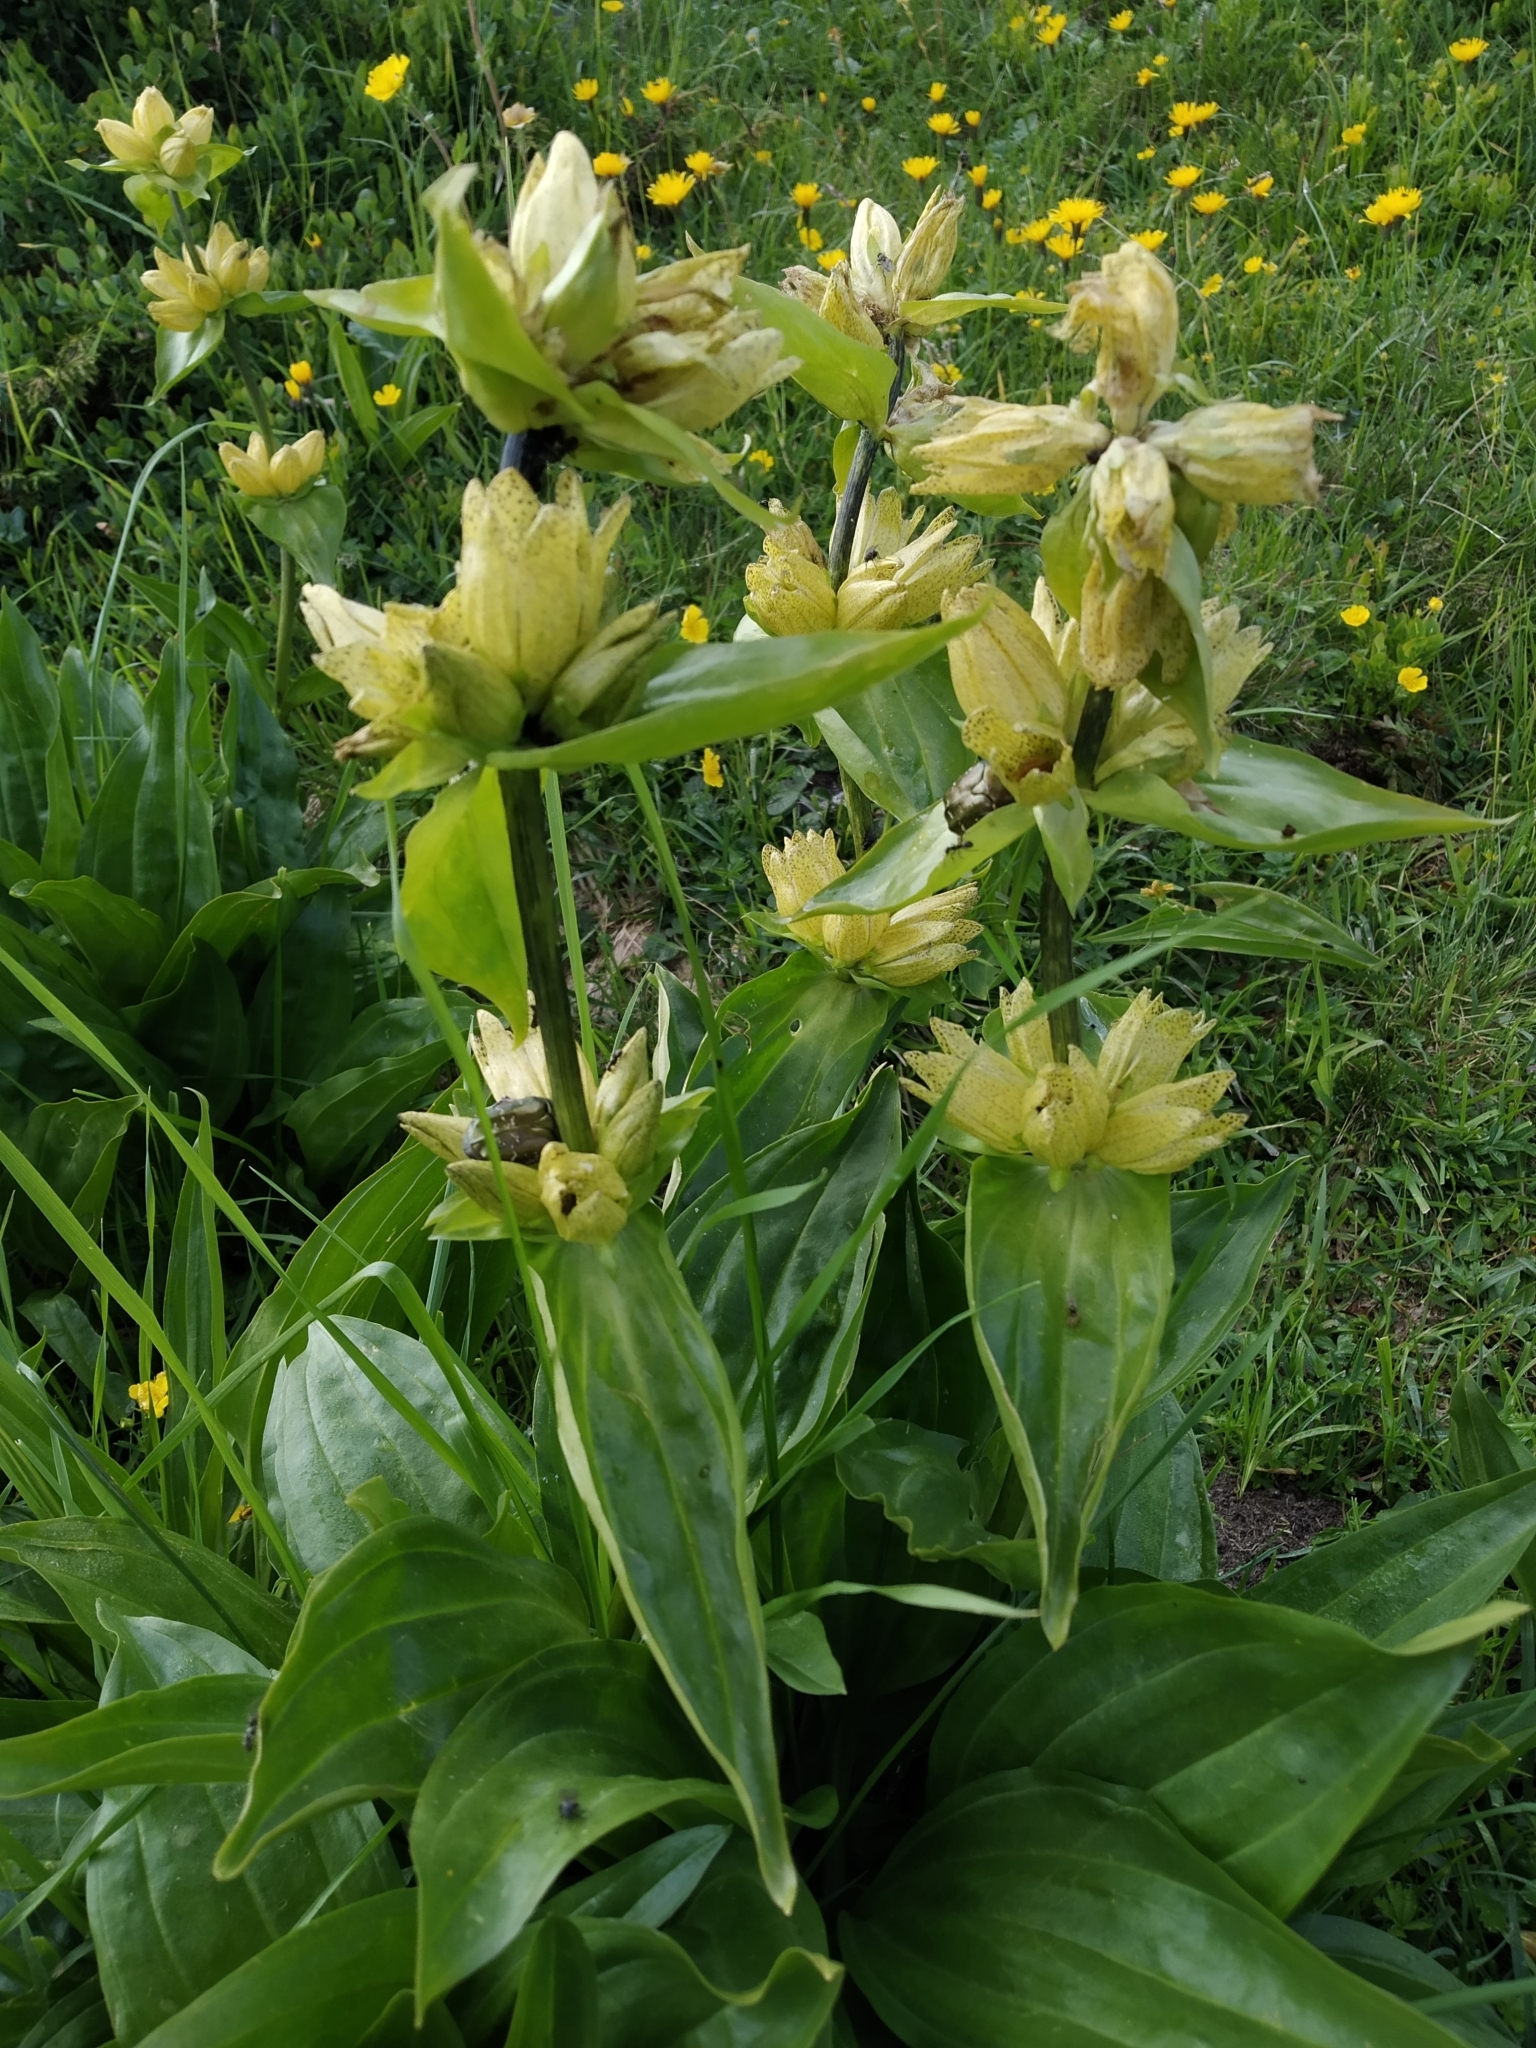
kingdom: Plantae
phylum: Tracheophyta
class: Magnoliopsida
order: Gentianales
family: Gentianaceae
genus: Gentiana
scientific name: Gentiana punctata
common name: Spotted gentian
